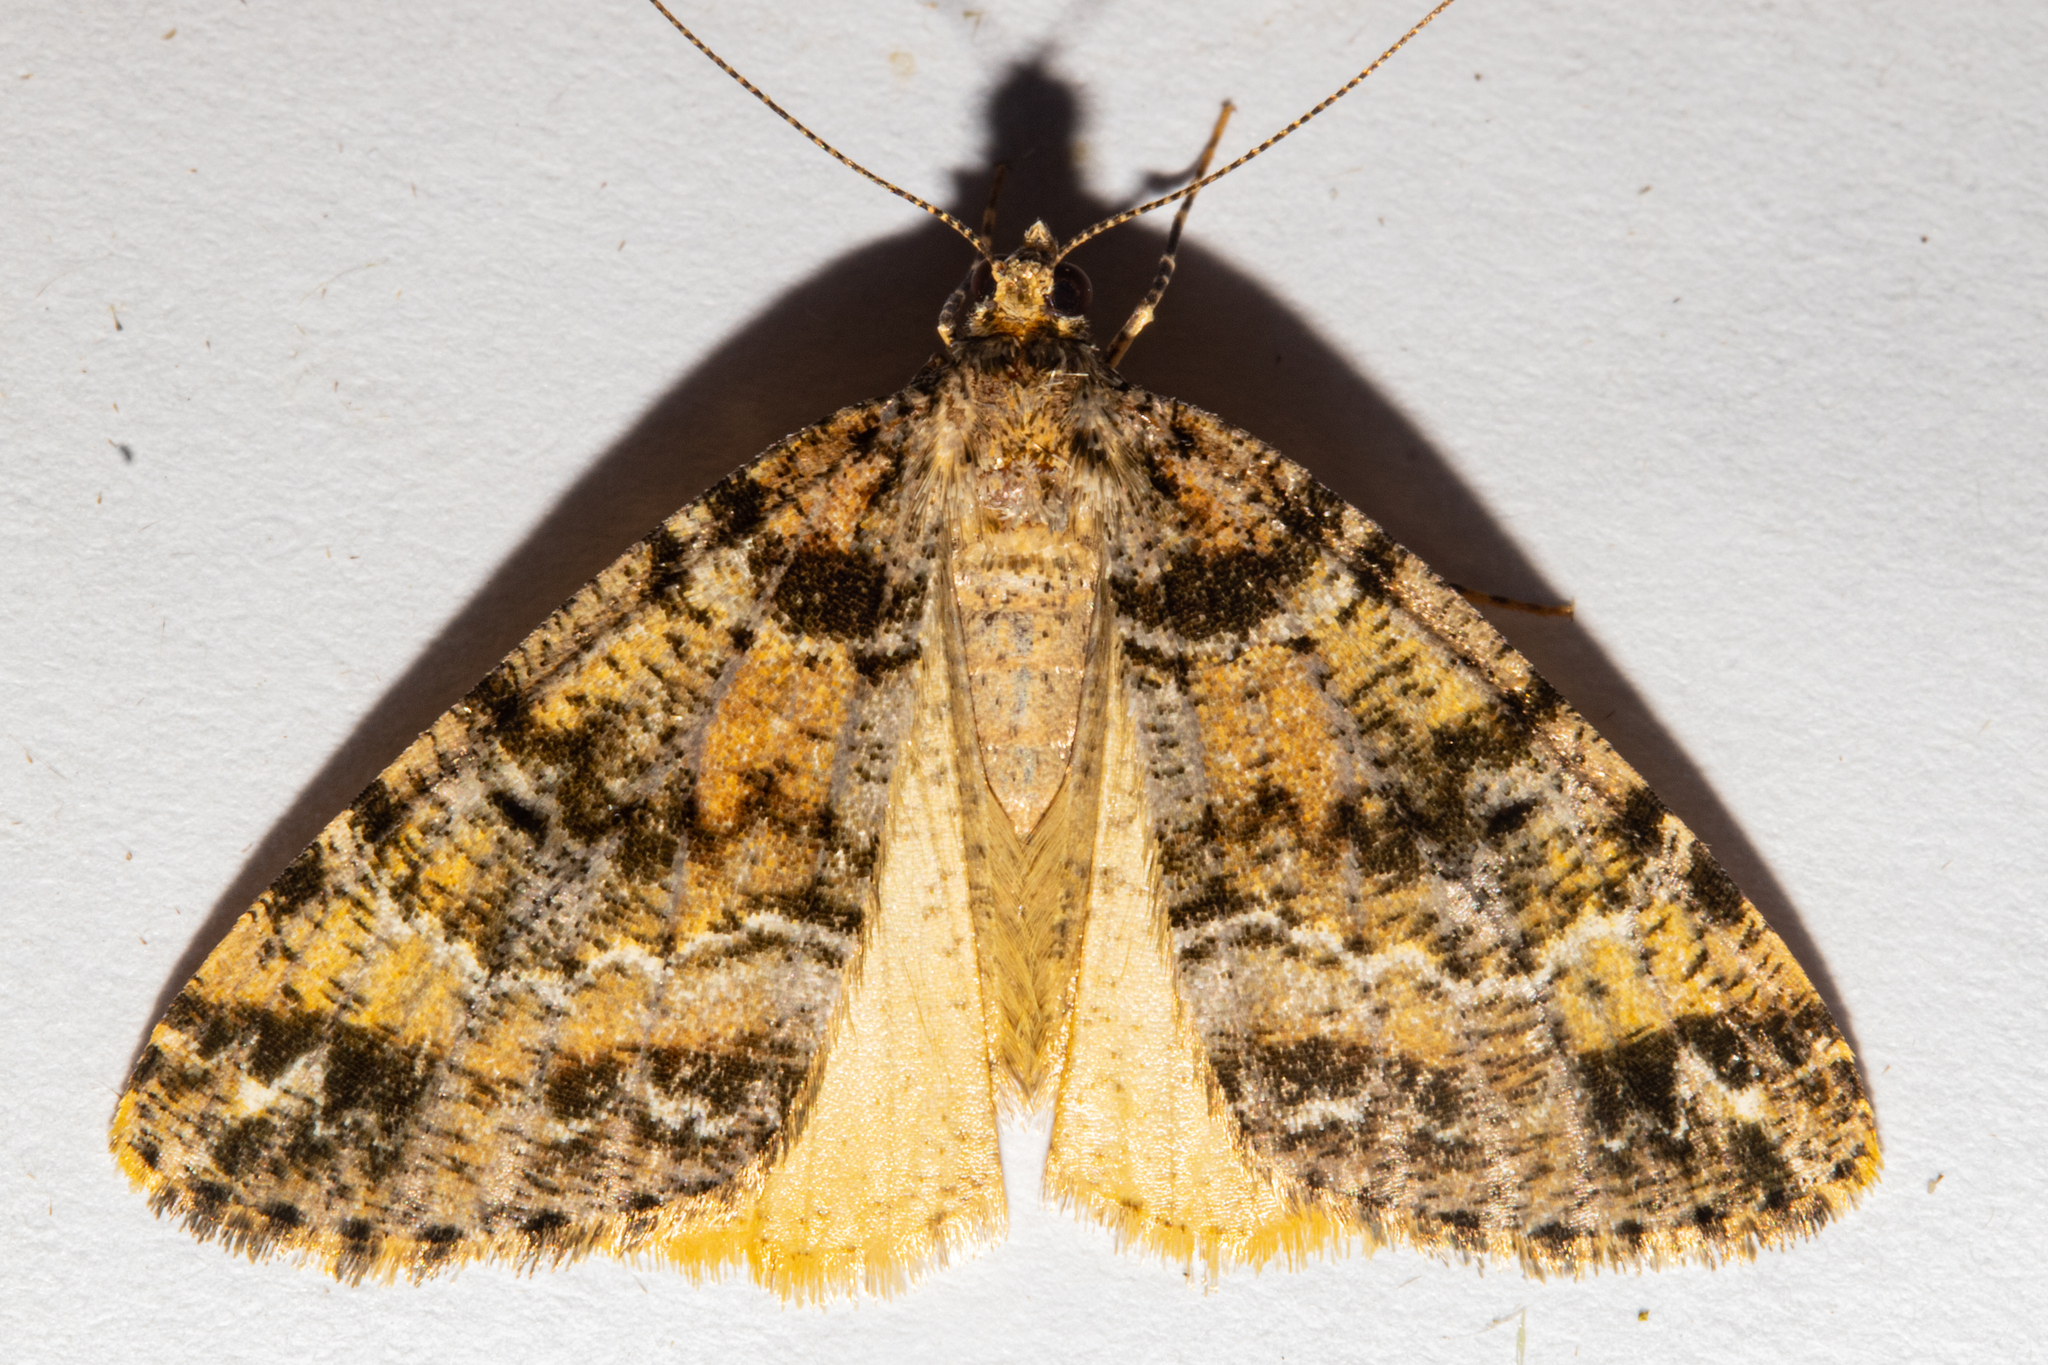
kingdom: Animalia
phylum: Arthropoda
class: Insecta
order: Lepidoptera
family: Geometridae
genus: Pseudocoremia
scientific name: Pseudocoremia productata
